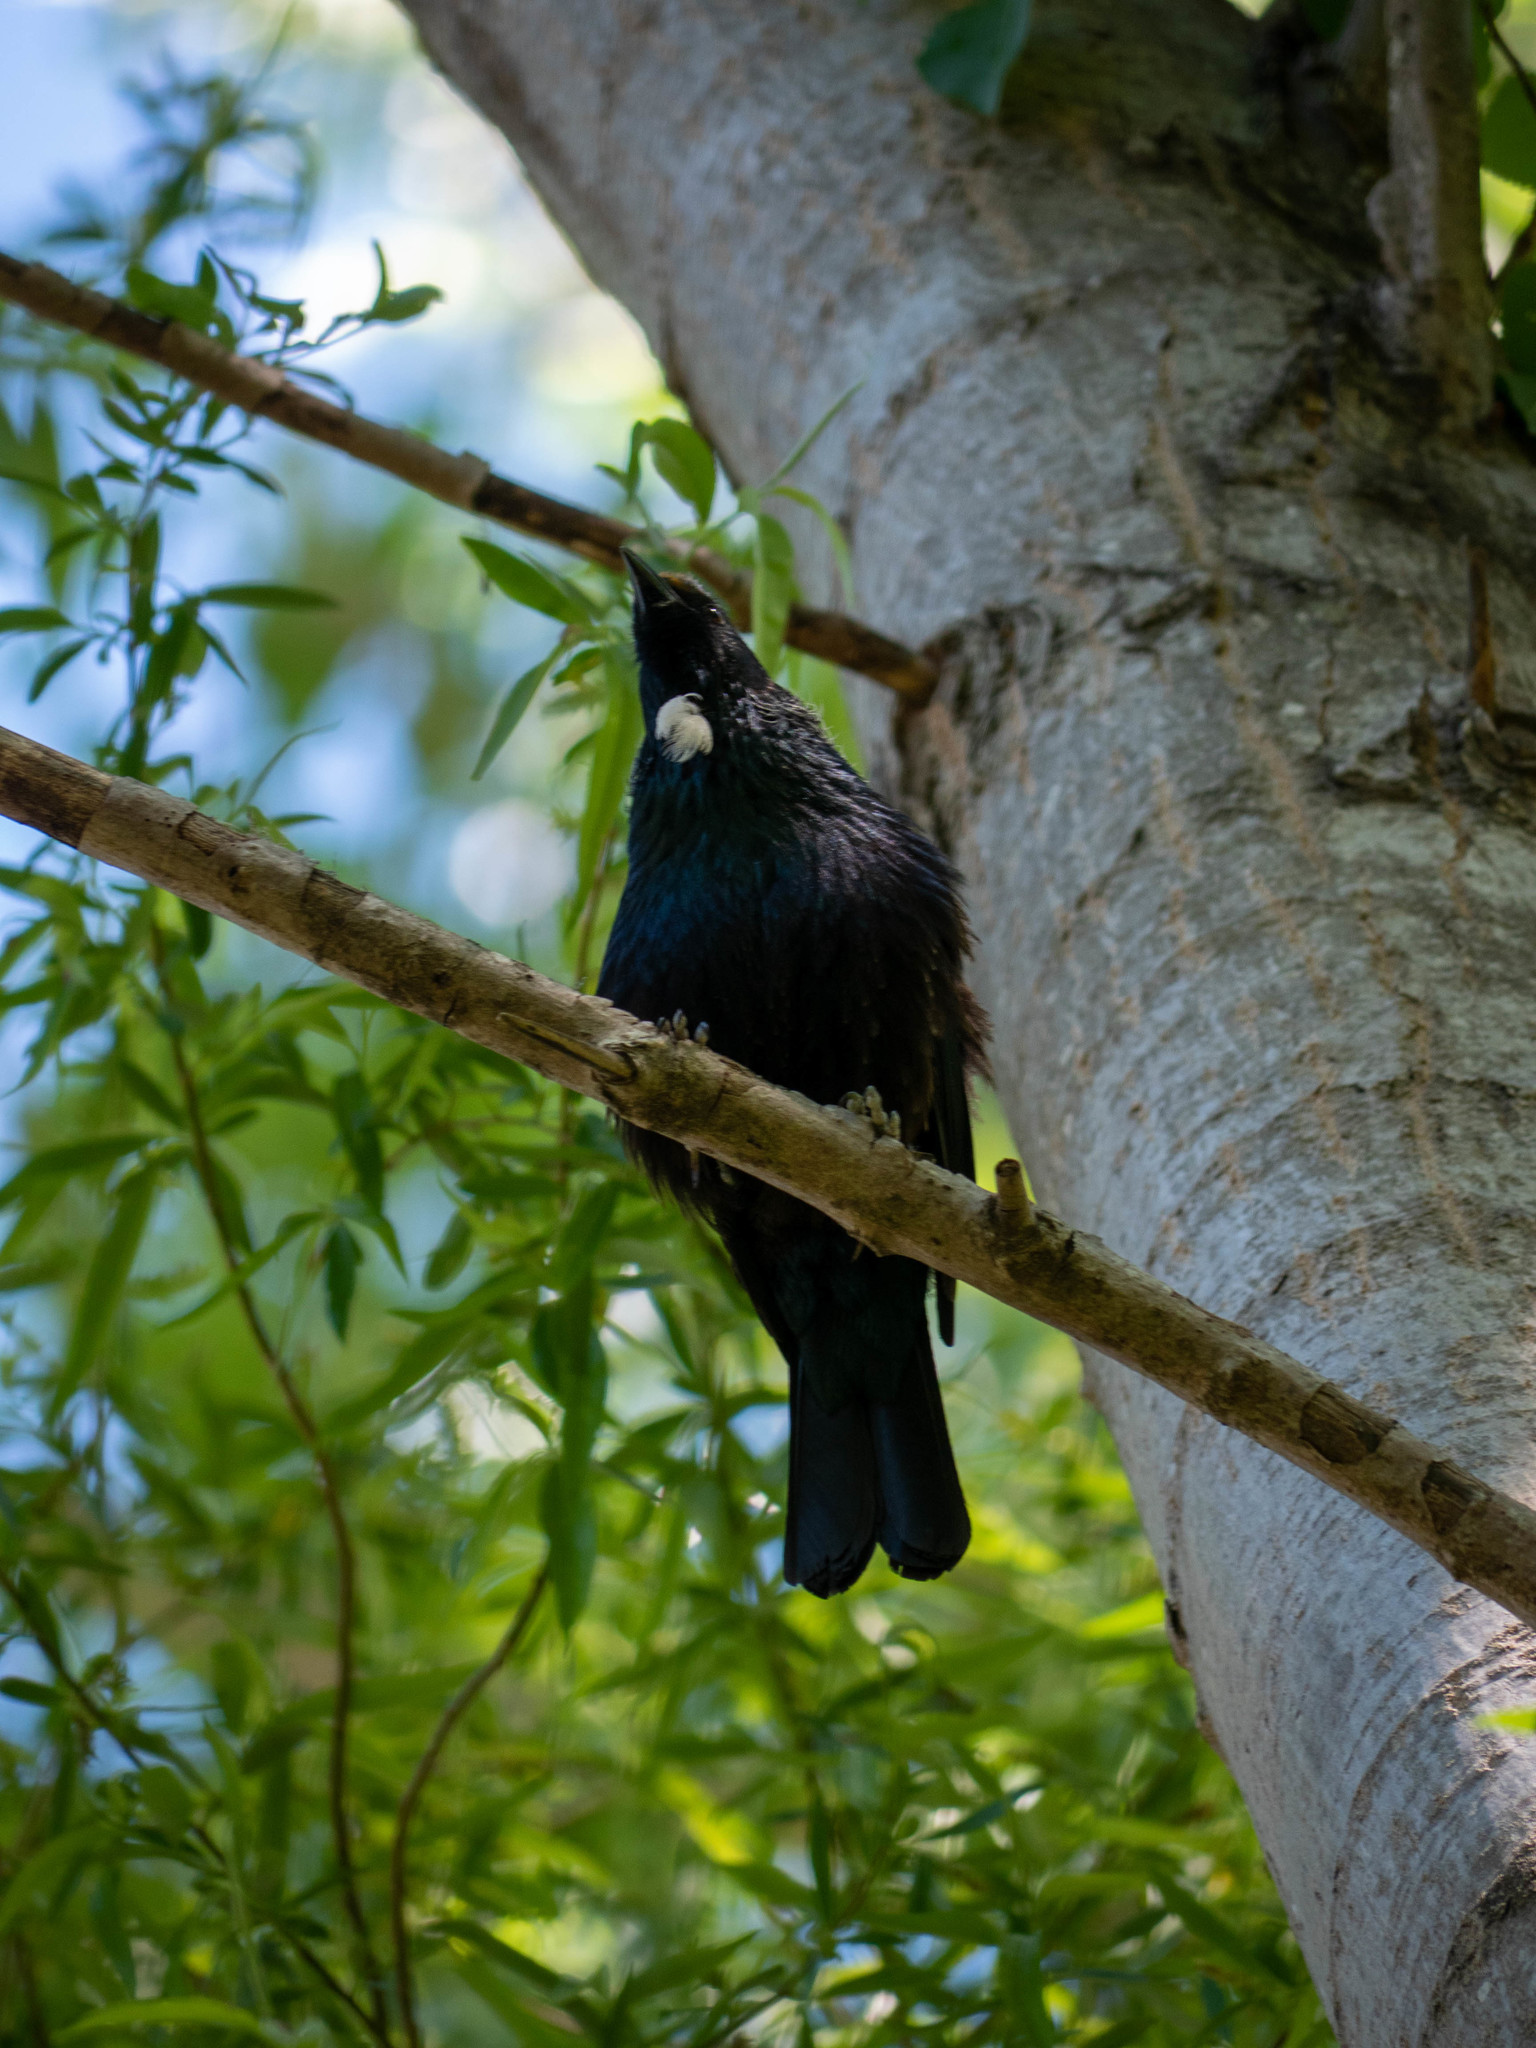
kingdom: Animalia
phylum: Chordata
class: Aves
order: Passeriformes
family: Meliphagidae
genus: Prosthemadera
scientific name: Prosthemadera novaeseelandiae
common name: Tui
